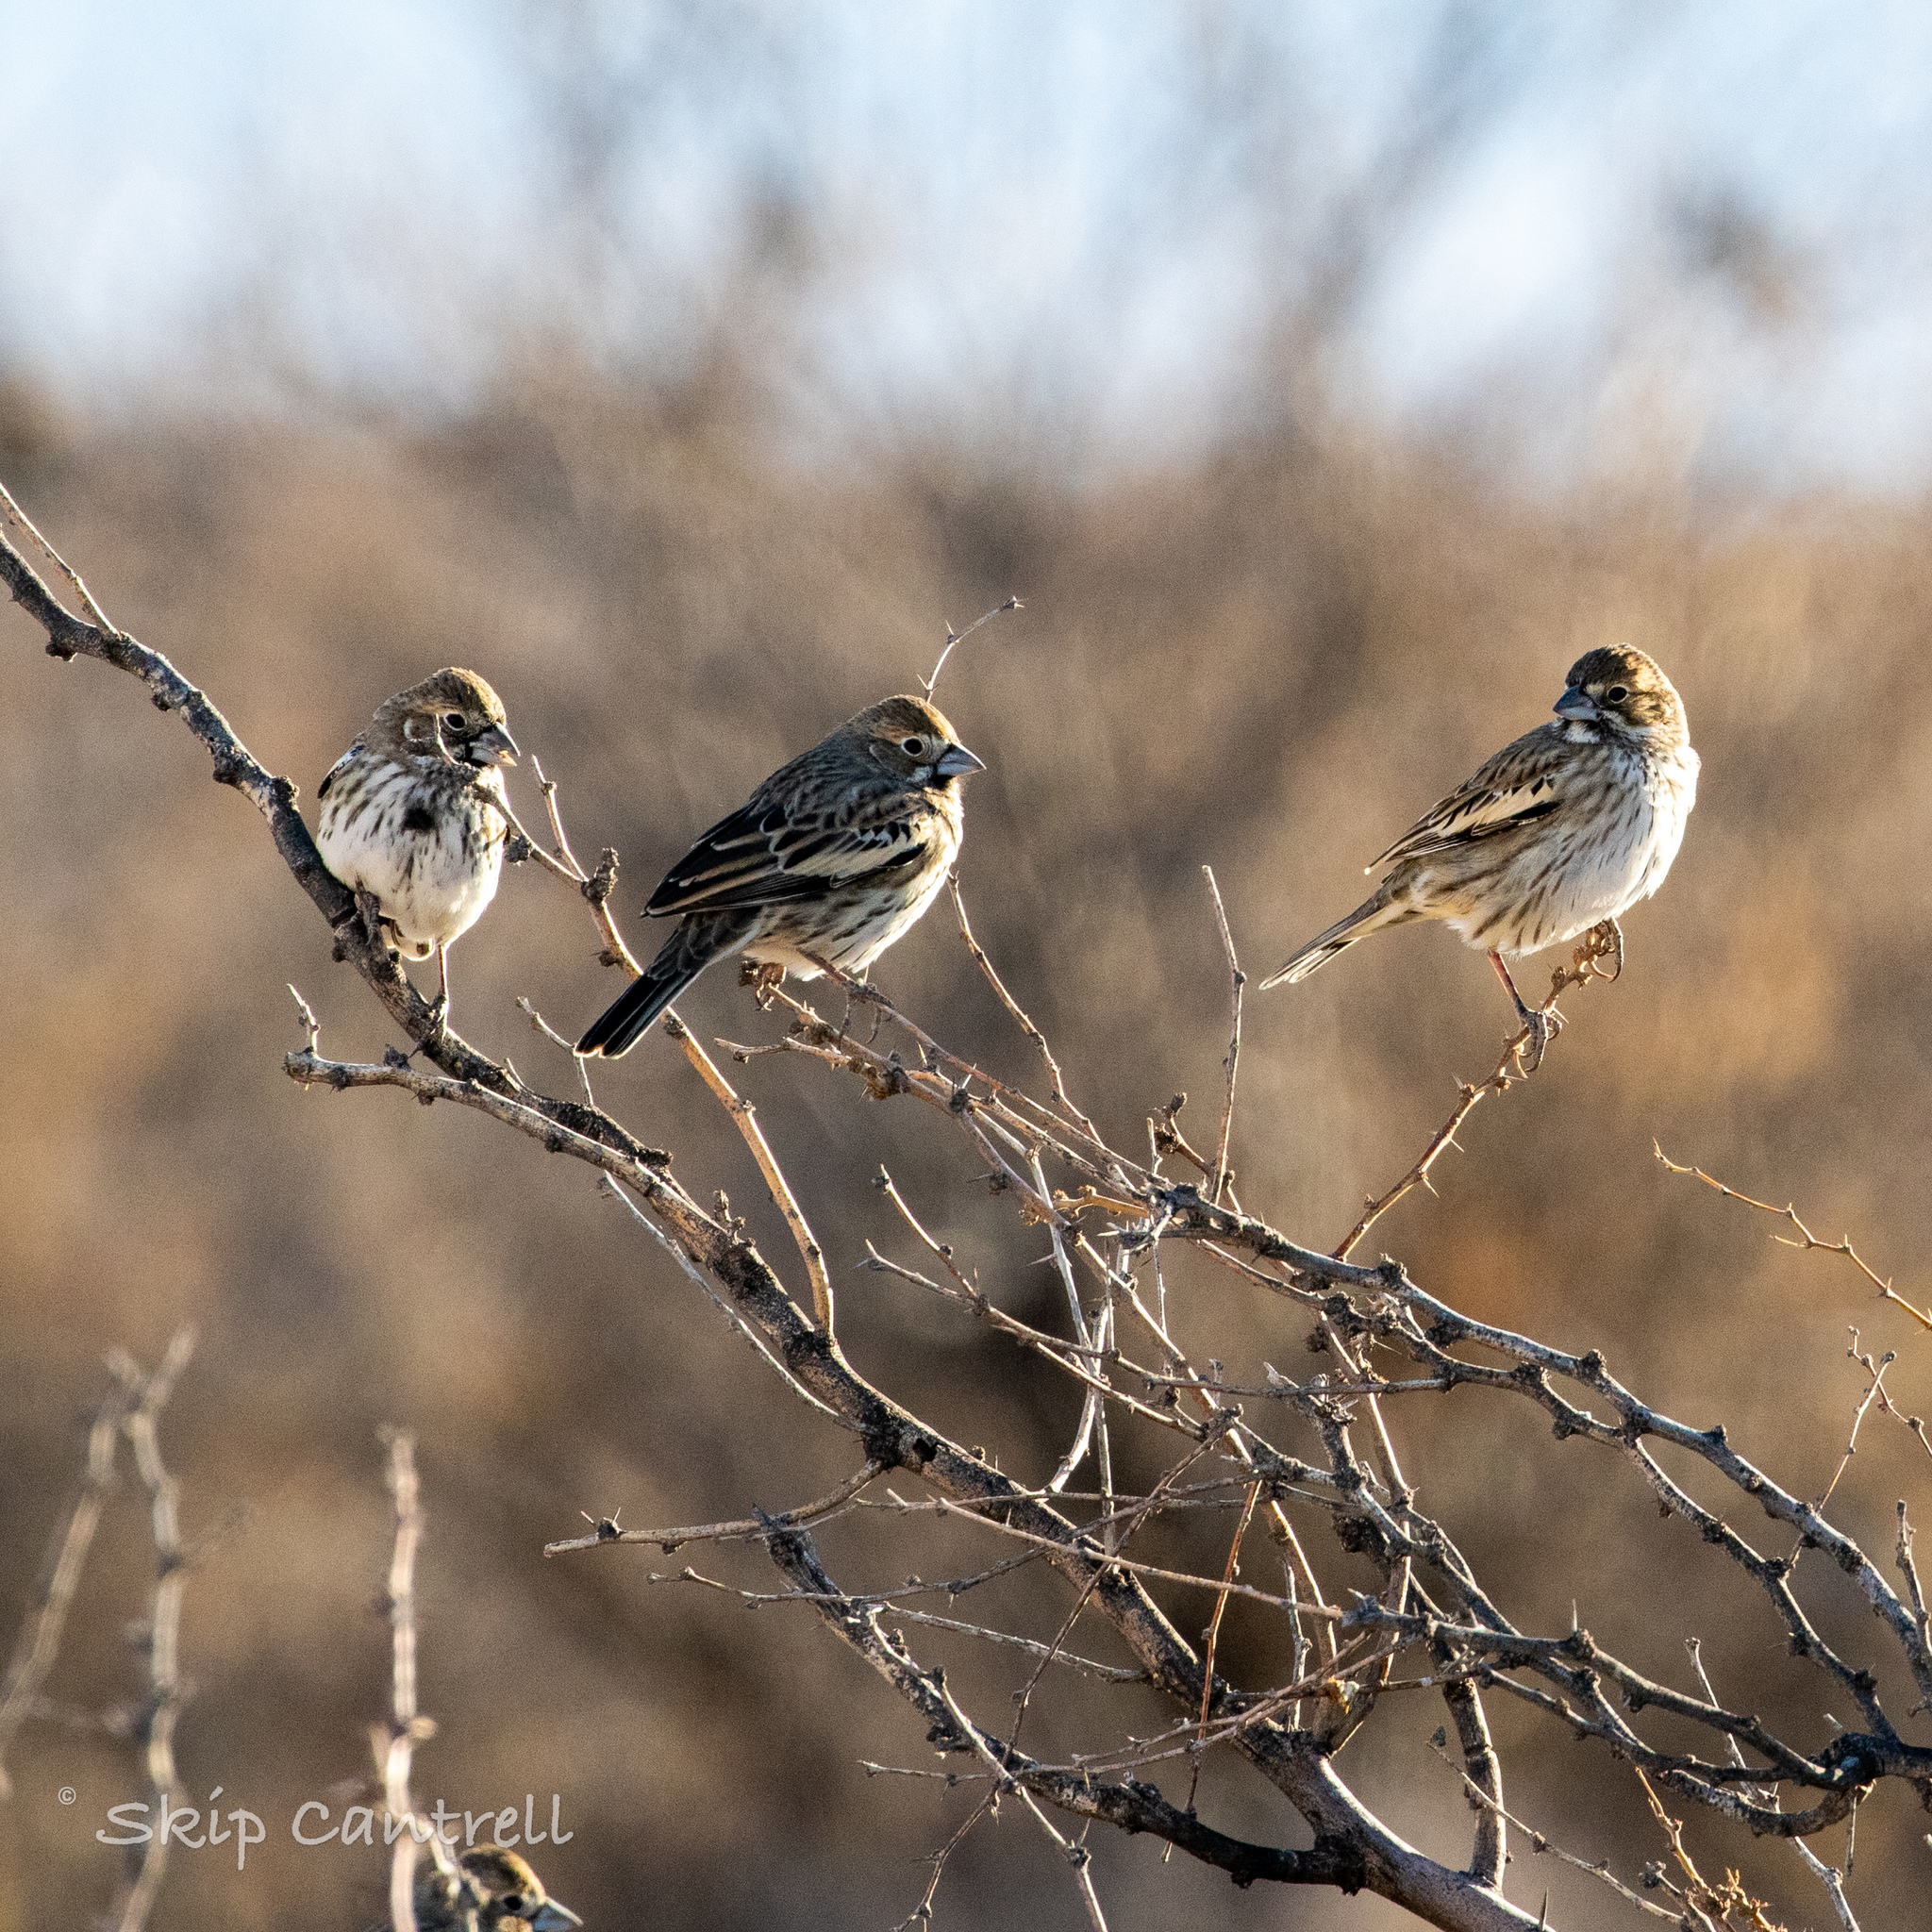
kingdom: Animalia
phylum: Chordata
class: Aves
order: Passeriformes
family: Passerellidae
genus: Calamospiza
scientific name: Calamospiza melanocorys
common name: Lark bunting
